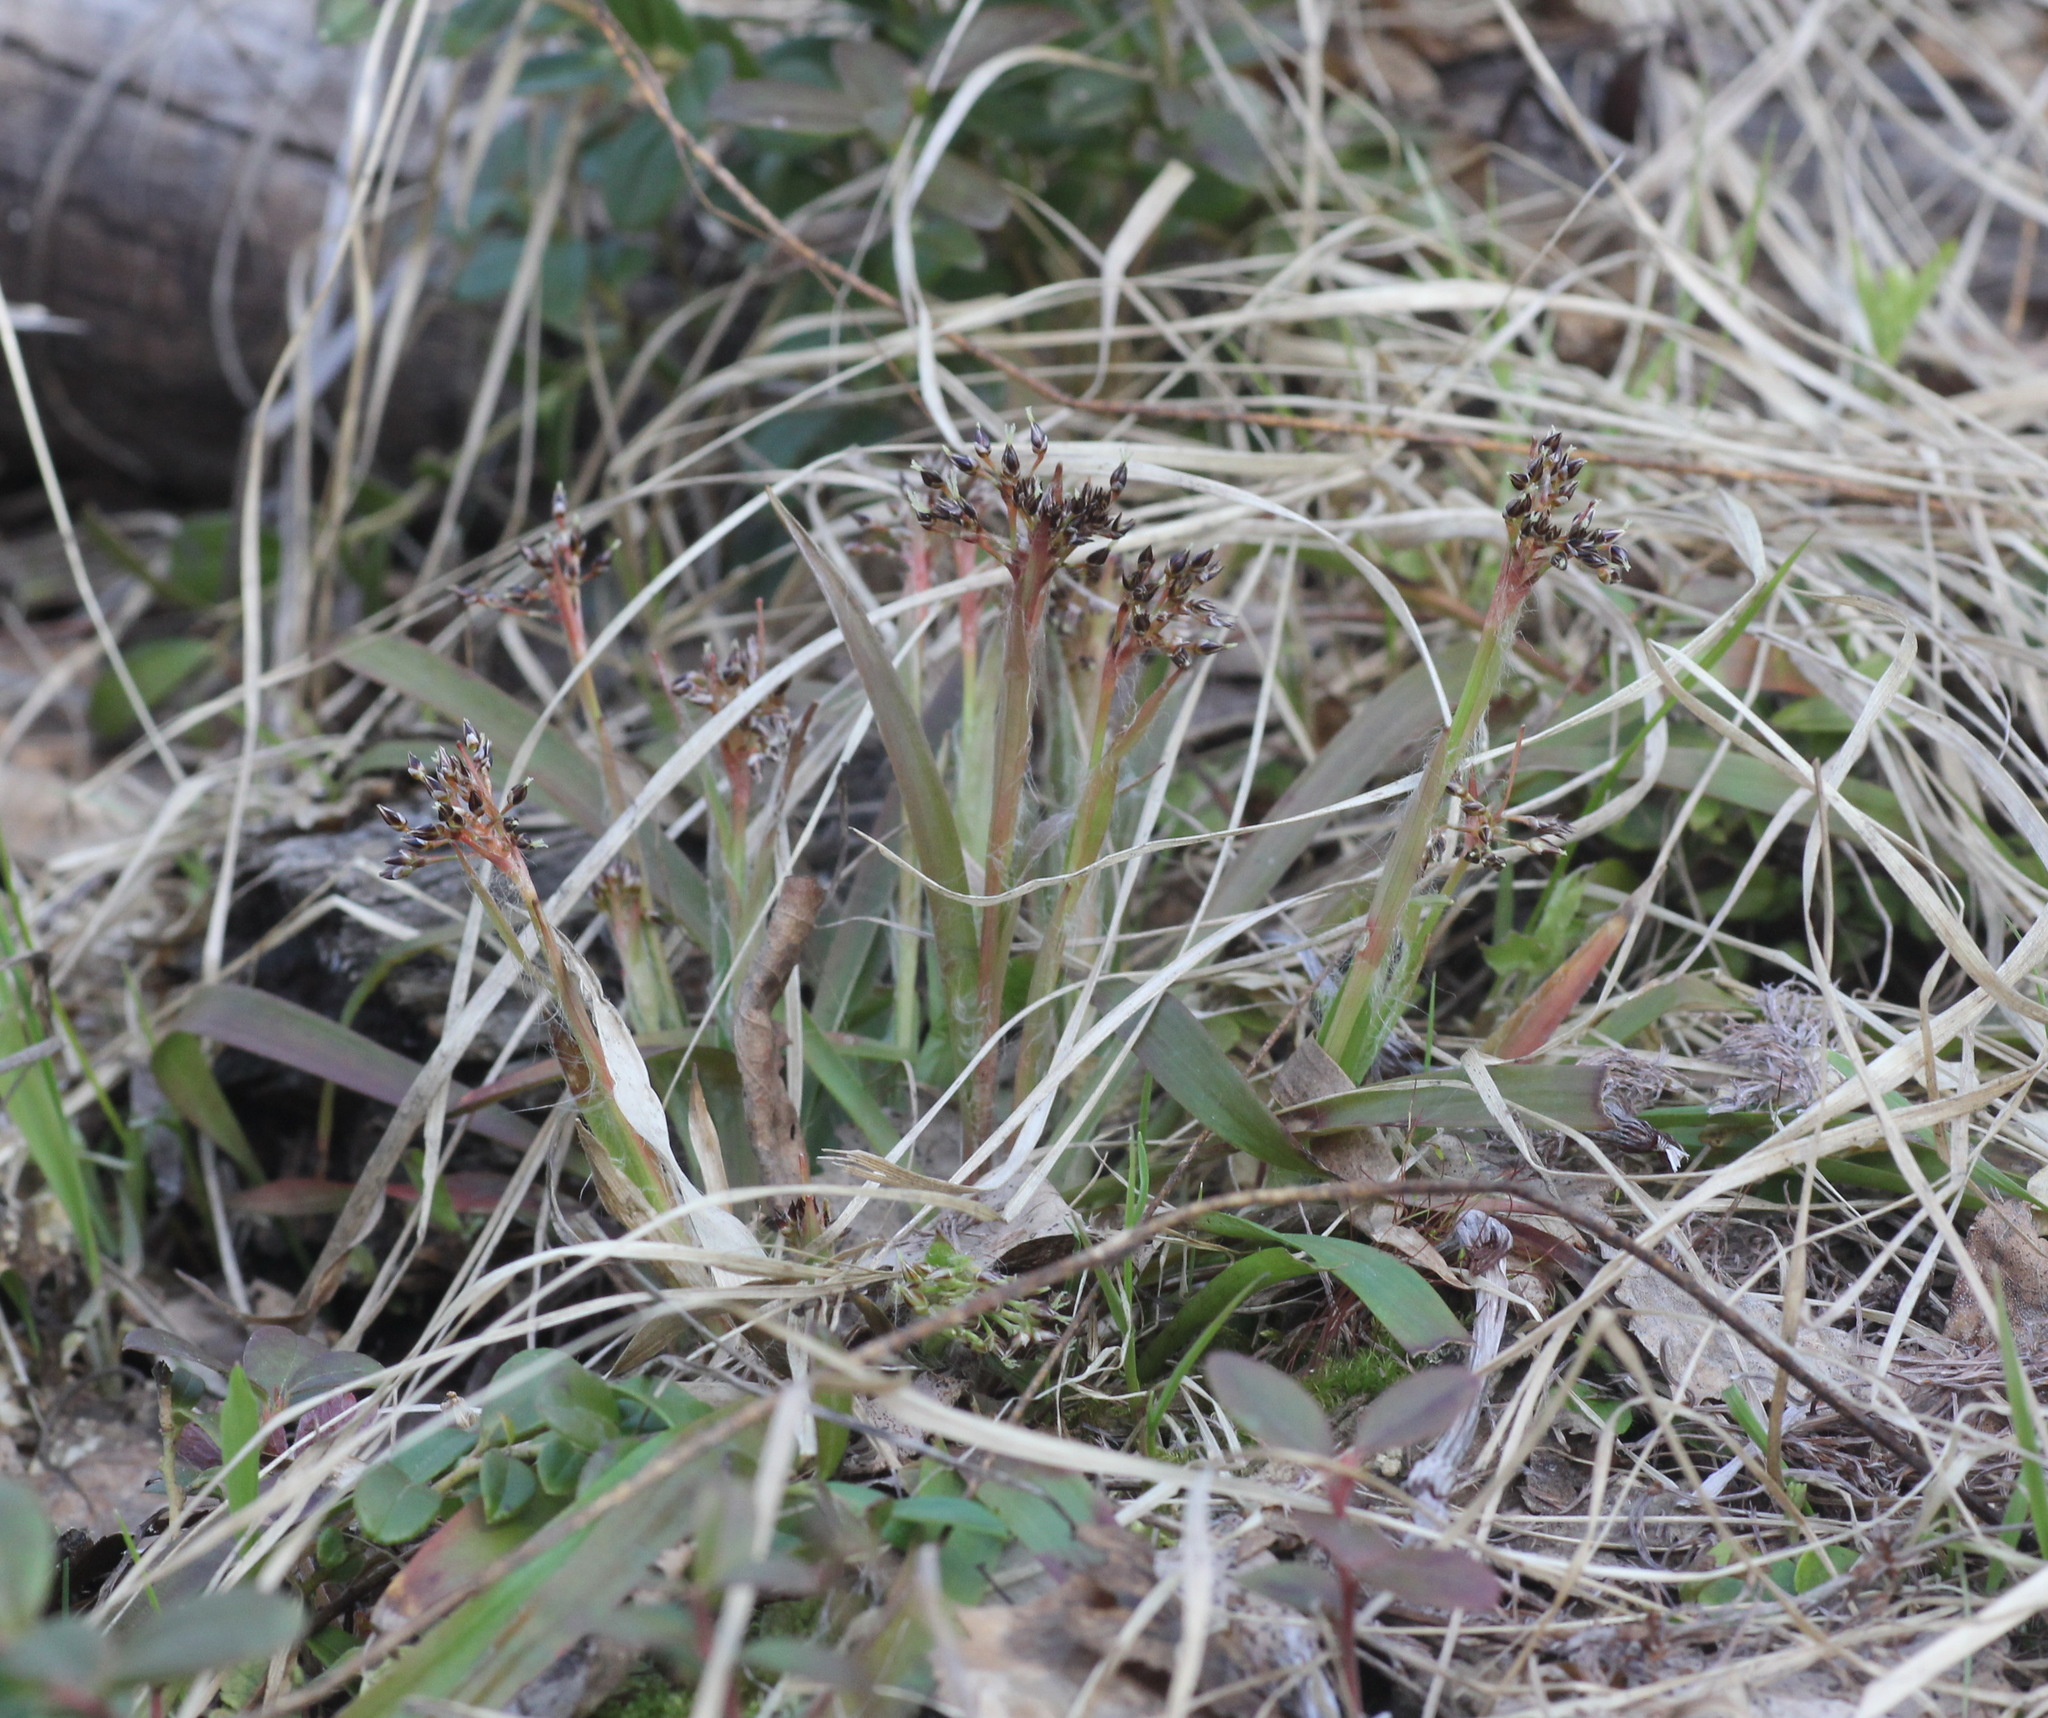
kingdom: Plantae
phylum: Tracheophyta
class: Liliopsida
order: Poales
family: Juncaceae
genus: Luzula
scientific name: Luzula pilosa
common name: Hairy wood-rush
